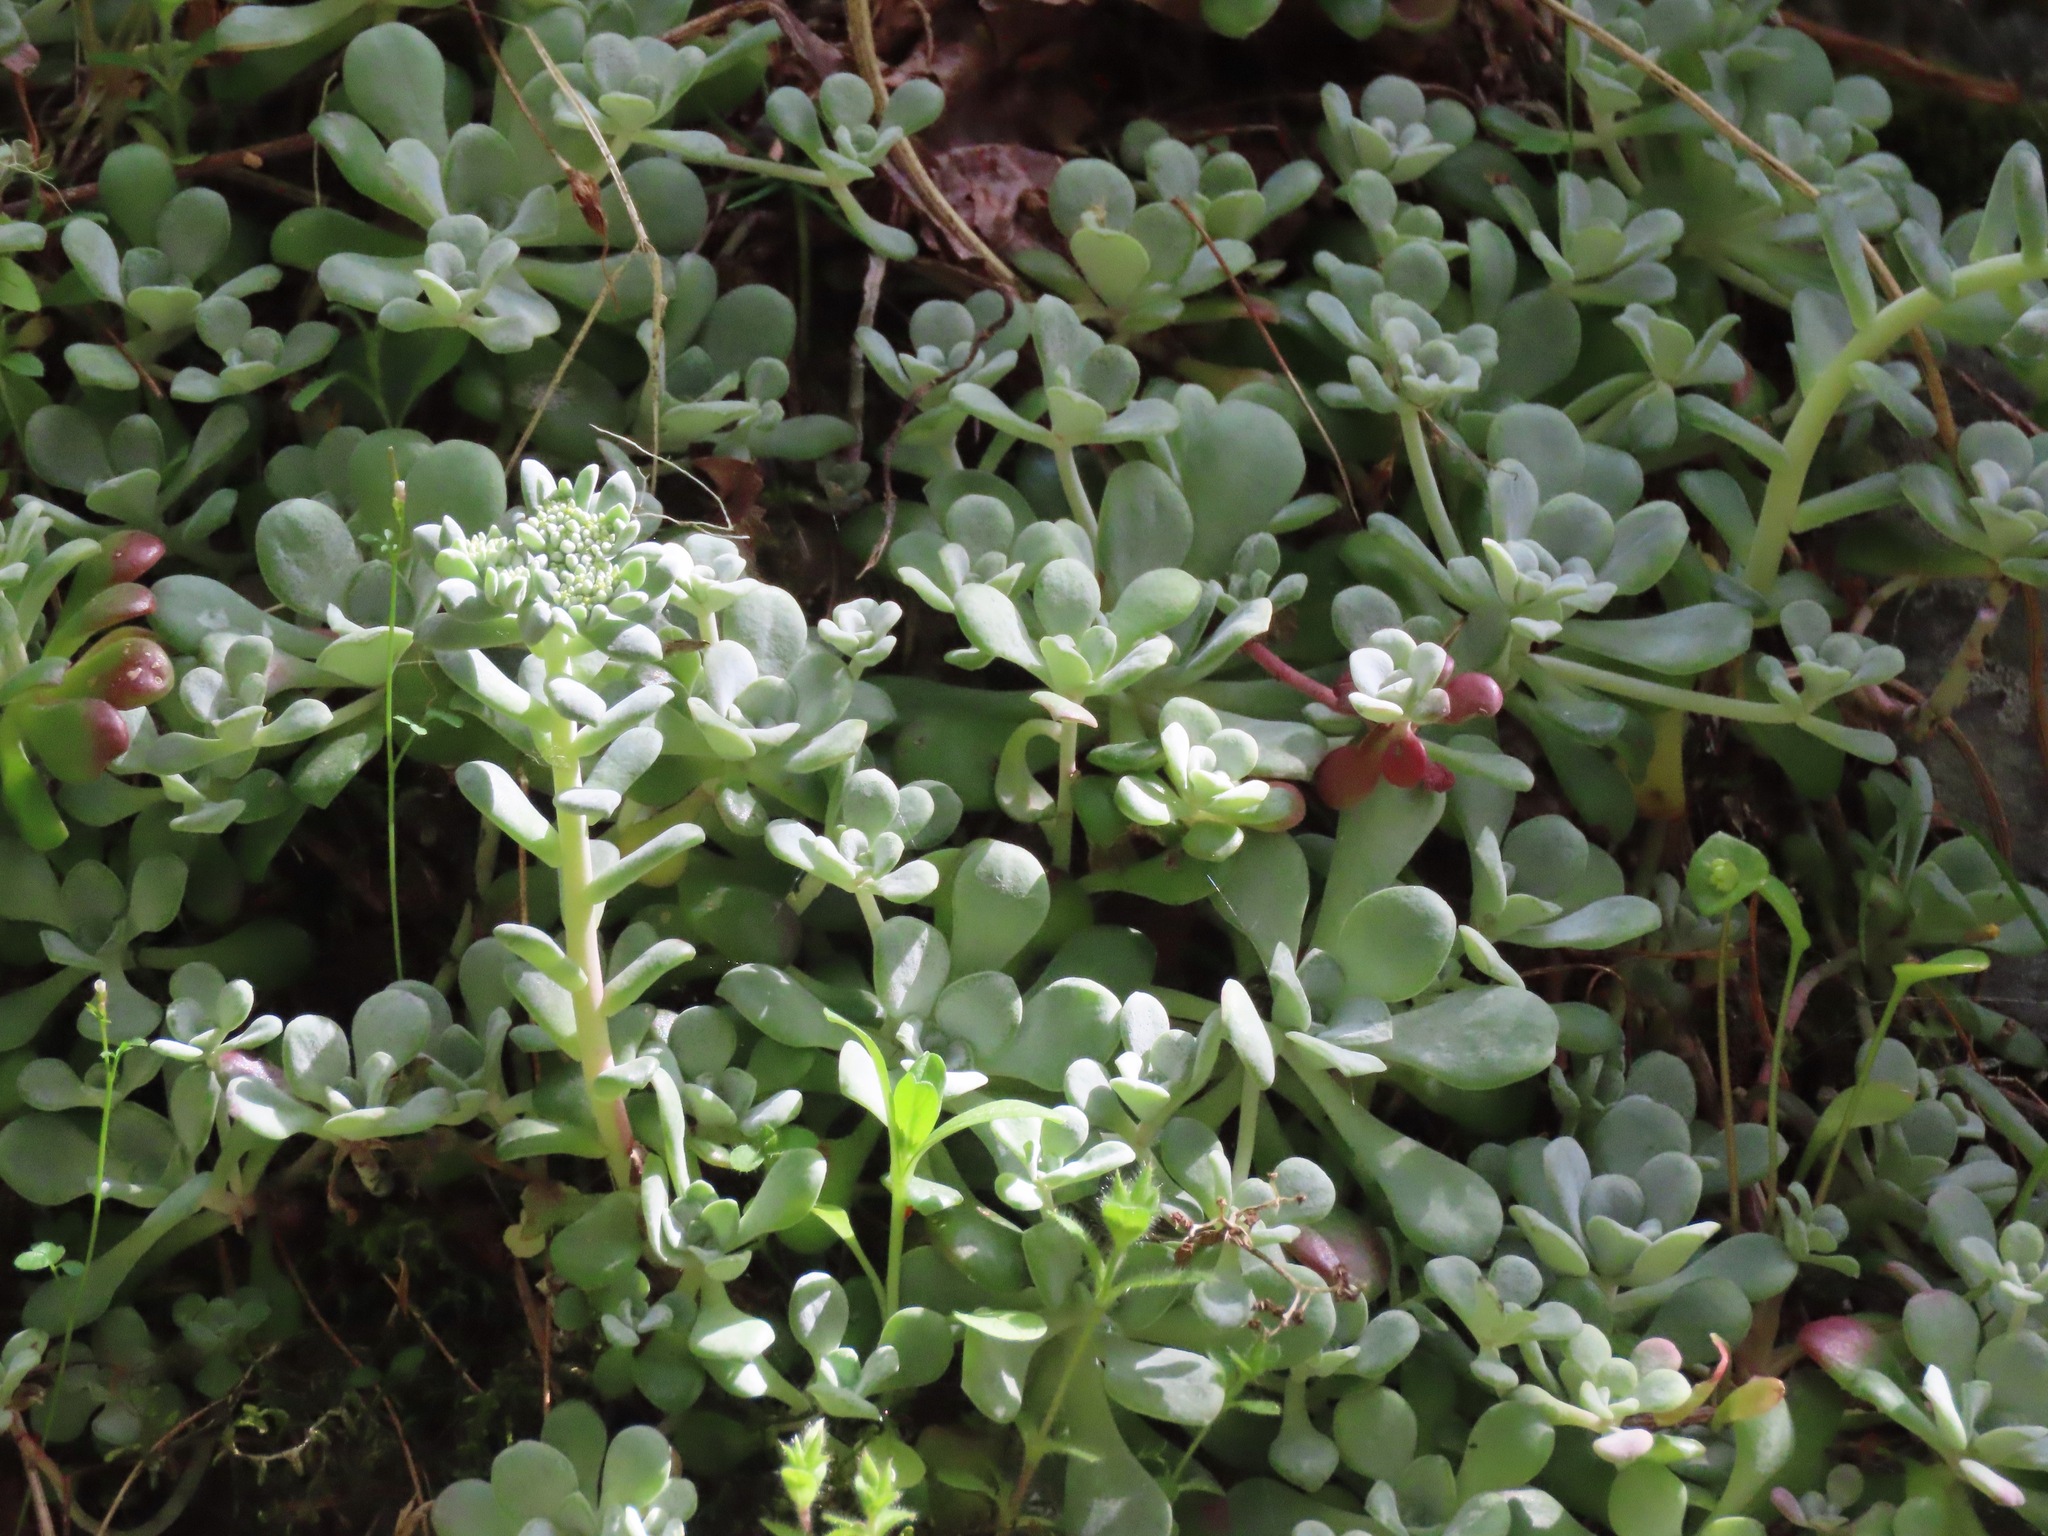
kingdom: Plantae
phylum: Tracheophyta
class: Magnoliopsida
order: Saxifragales
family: Crassulaceae
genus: Sedum
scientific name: Sedum spathulifolium
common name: Colorado stonecrop
